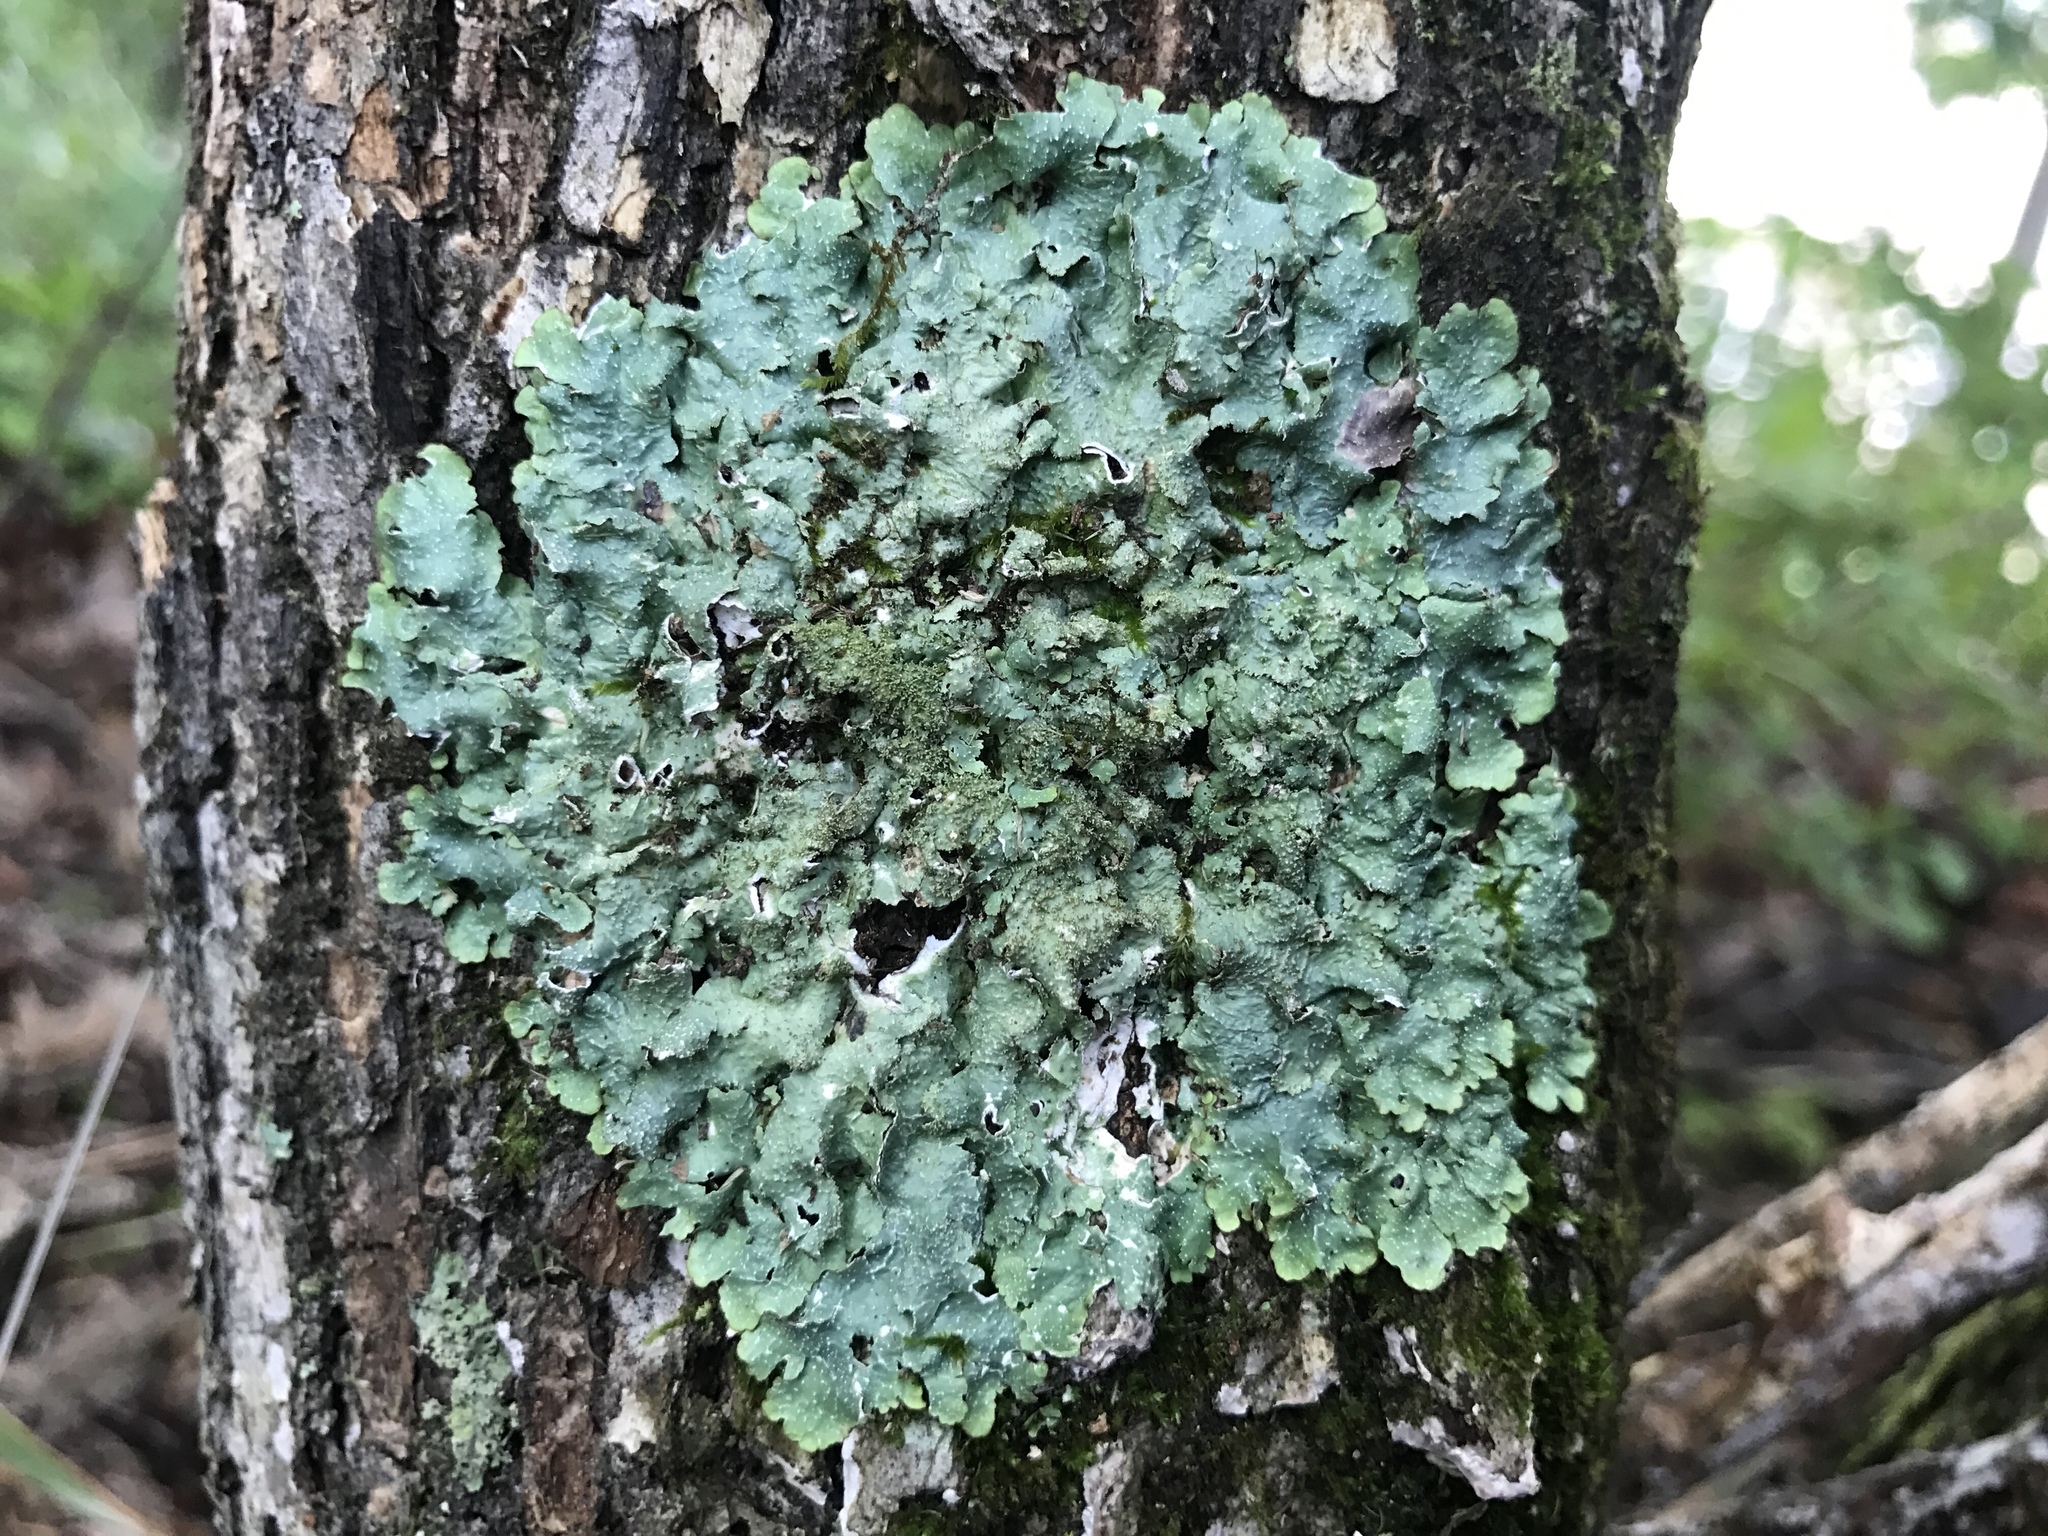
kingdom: Fungi
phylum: Ascomycota
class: Lecanoromycetes
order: Lecanorales
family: Parmeliaceae
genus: Punctelia
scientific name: Punctelia rudecta
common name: Rough speckled shield lichen
